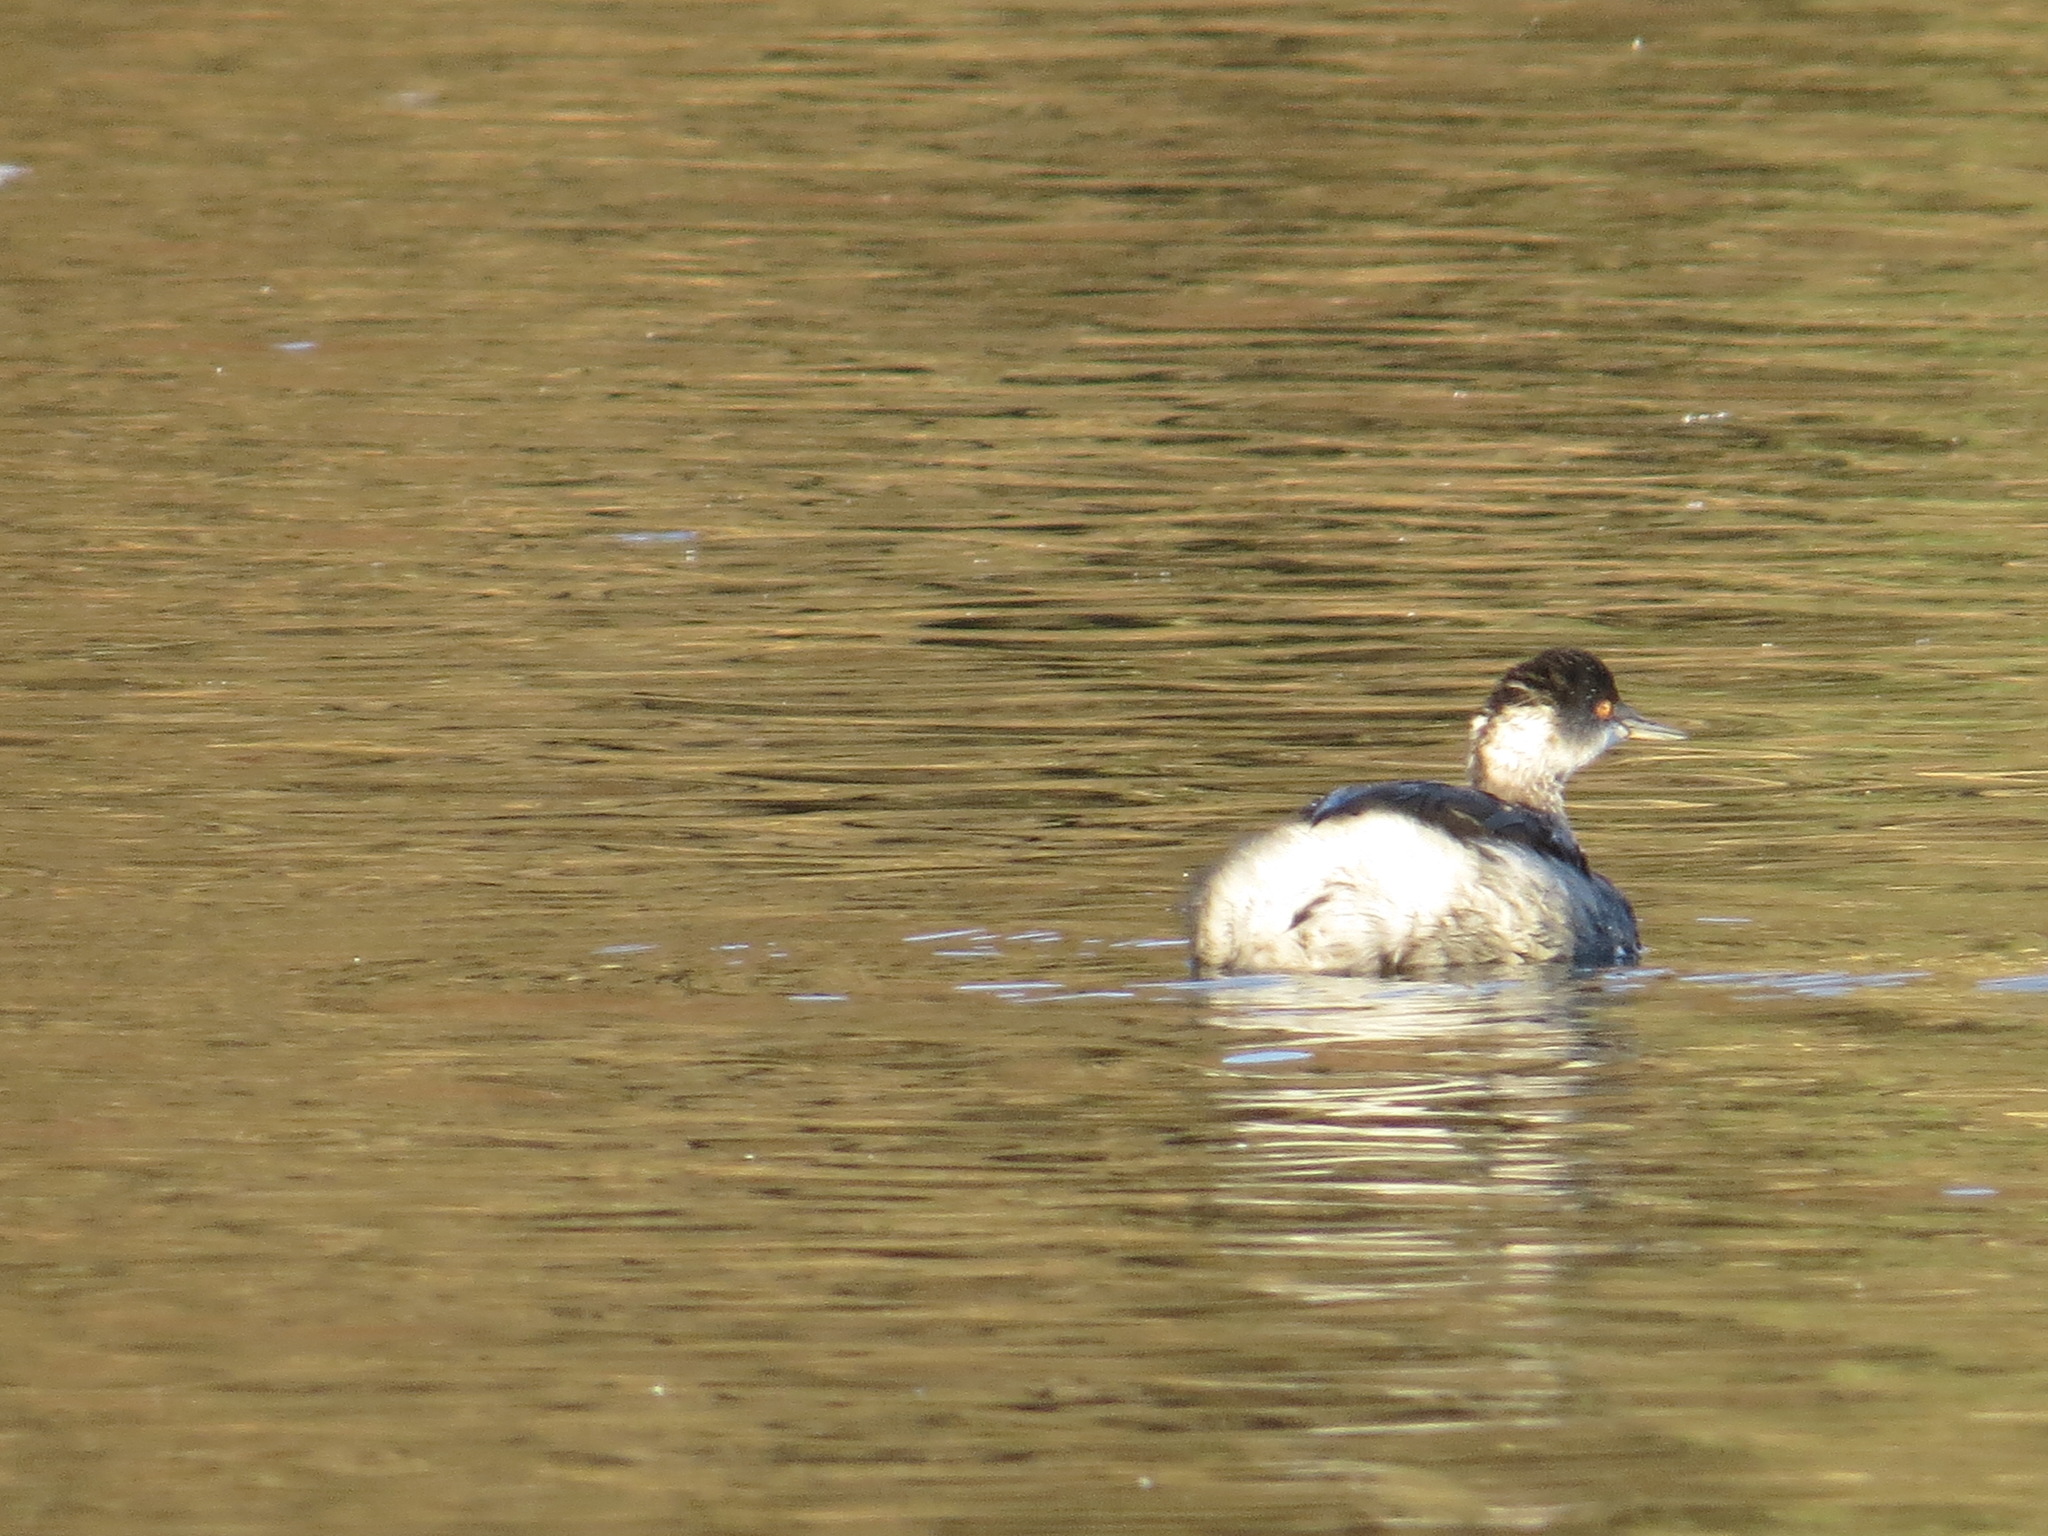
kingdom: Animalia
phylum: Chordata
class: Aves
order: Podicipediformes
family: Podicipedidae
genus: Podiceps
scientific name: Podiceps nigricollis
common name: Black-necked grebe
